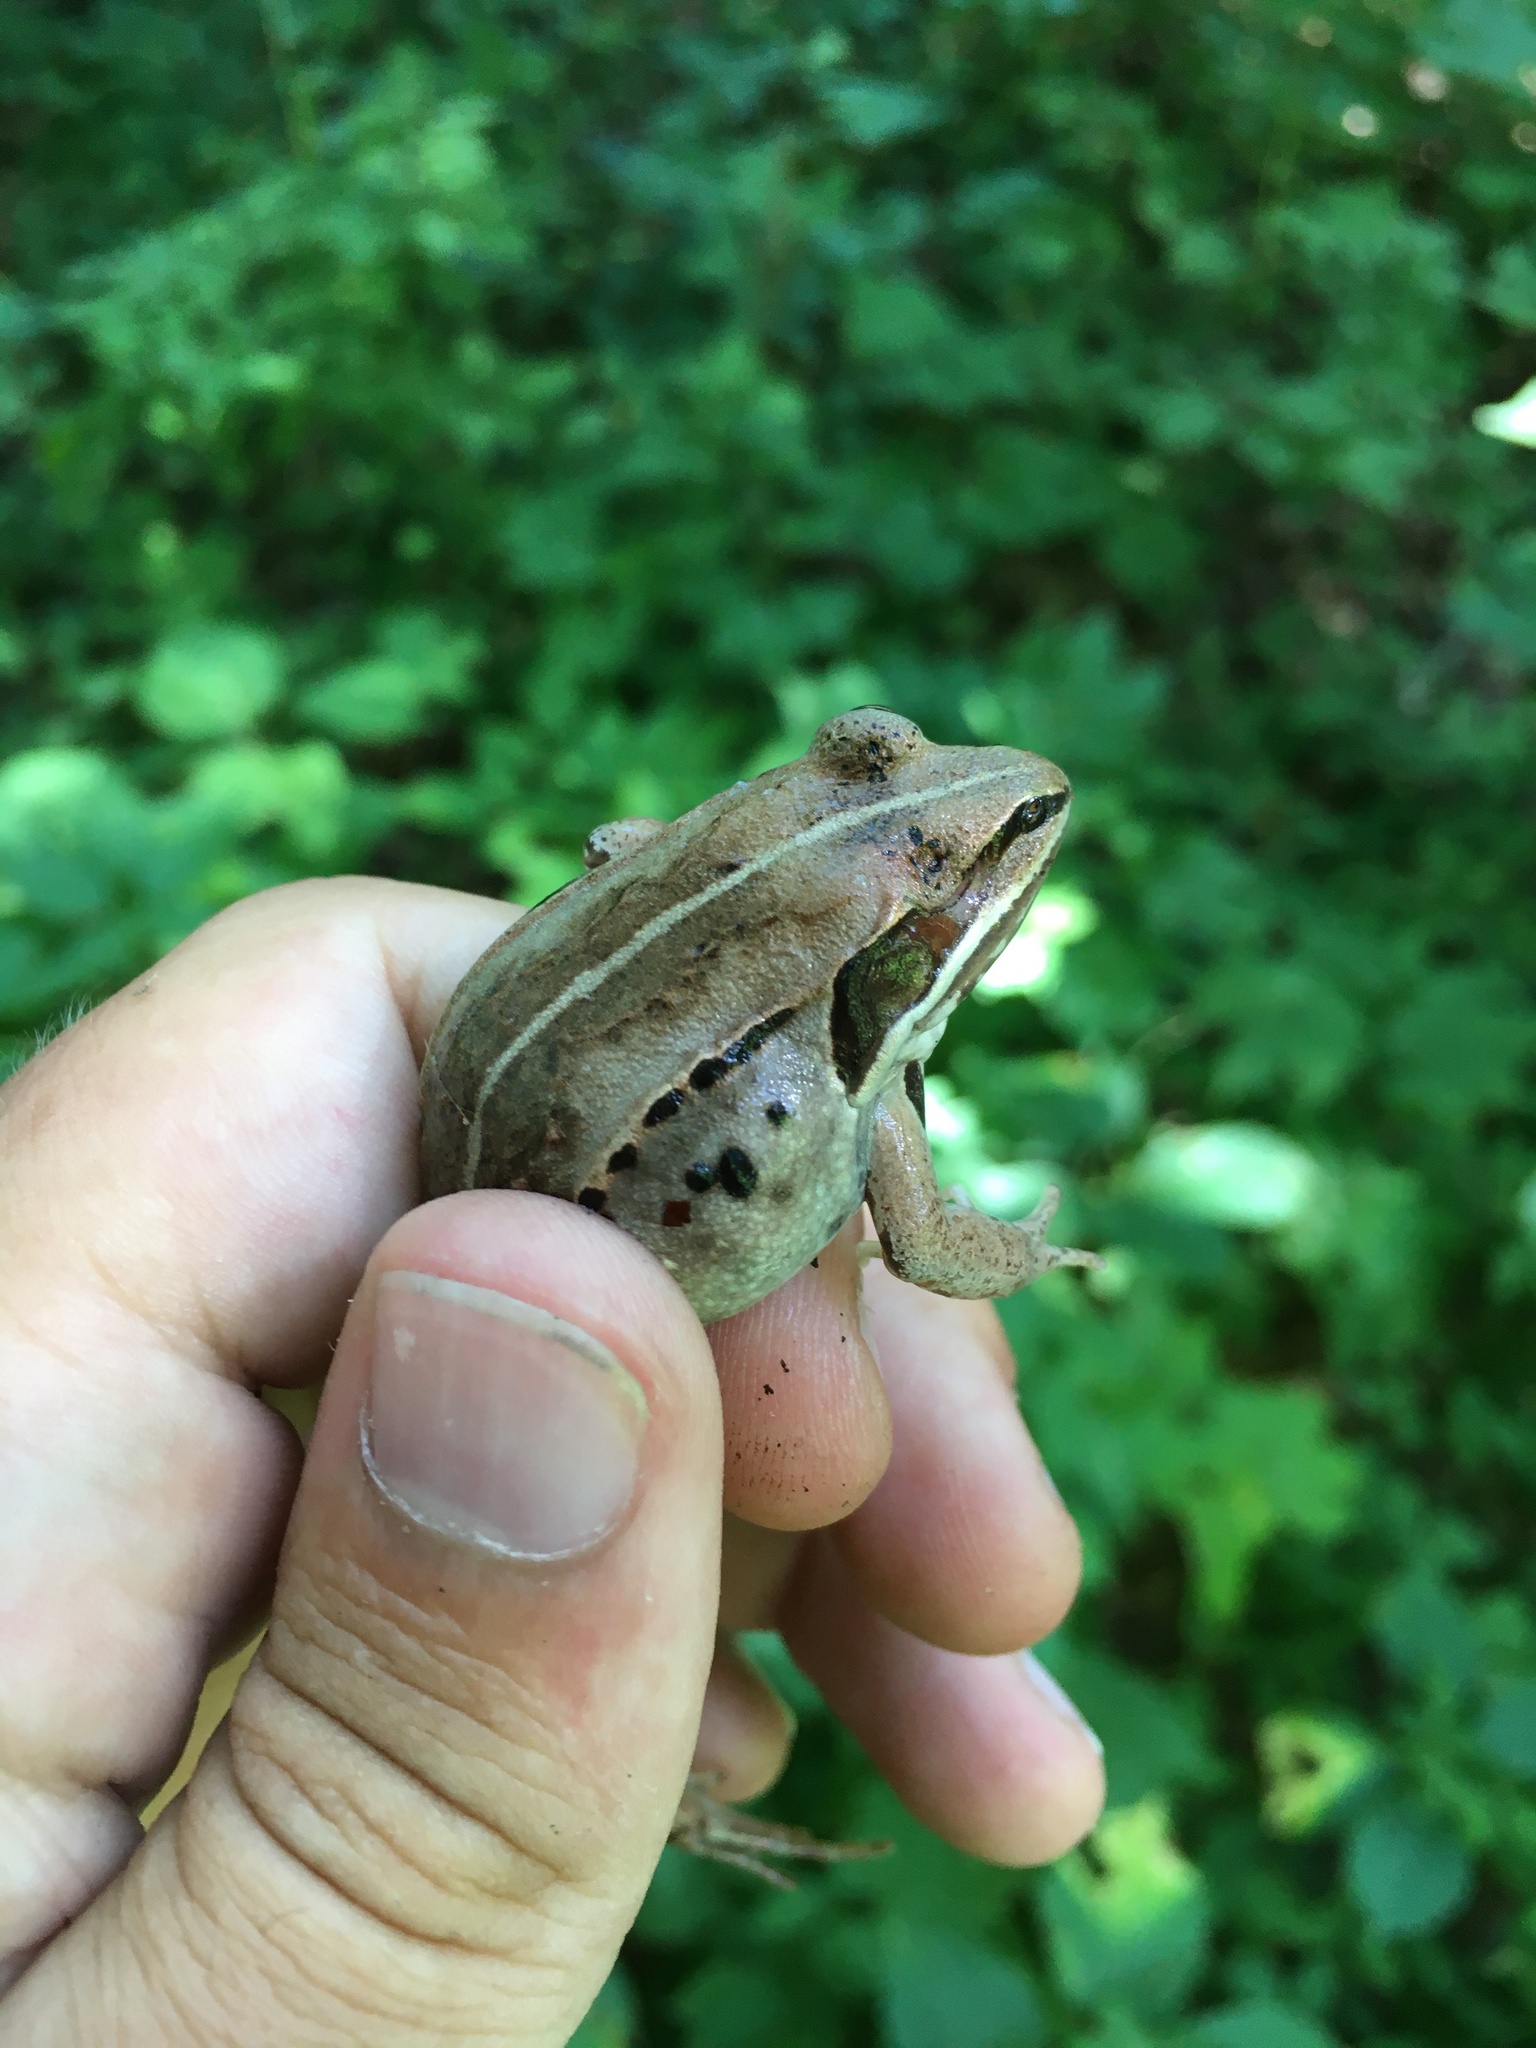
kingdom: Animalia
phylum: Chordata
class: Amphibia
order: Anura
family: Ranidae
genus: Lithobates
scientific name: Lithobates sylvaticus
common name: Wood frog
